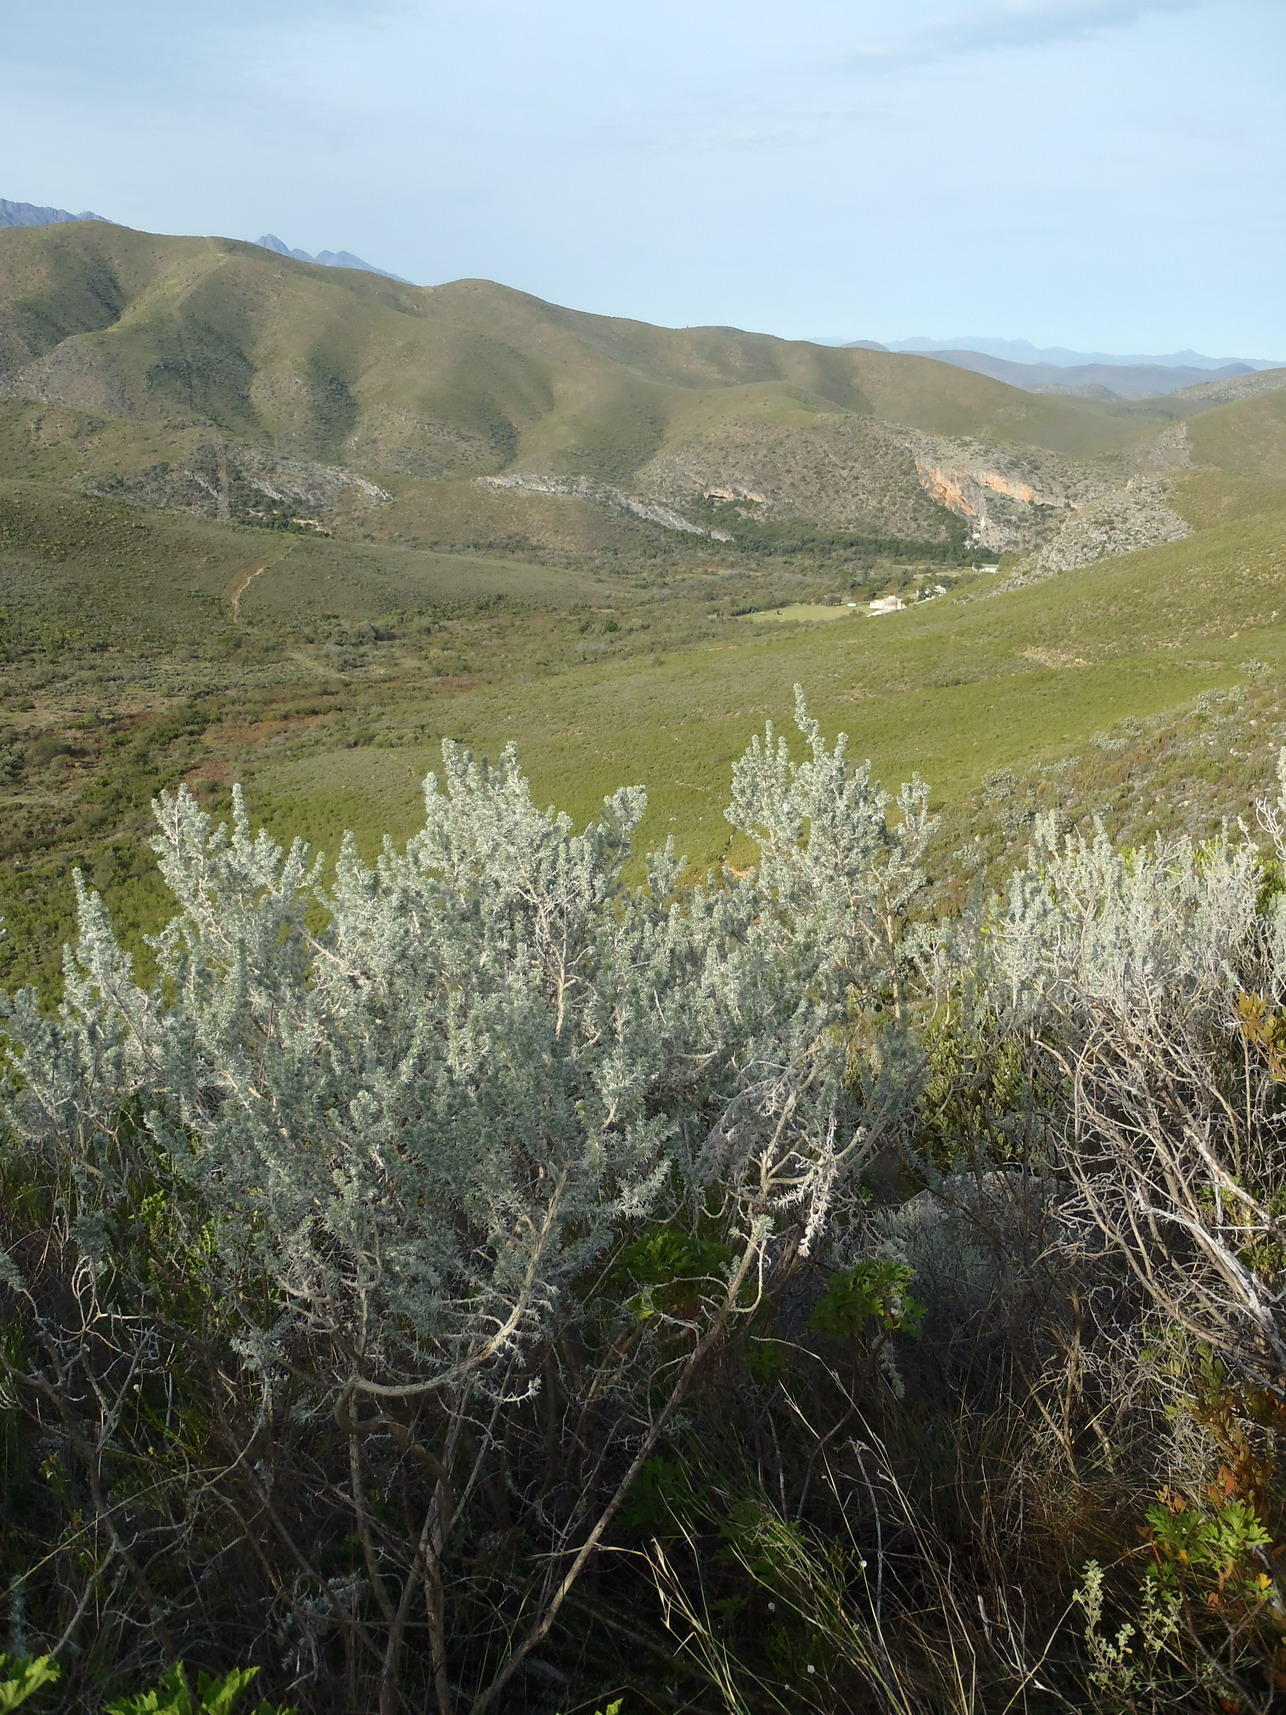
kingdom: Plantae
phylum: Tracheophyta
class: Magnoliopsida
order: Fabales
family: Fabaceae
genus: Aspalathus
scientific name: Aspalathus hystrix
